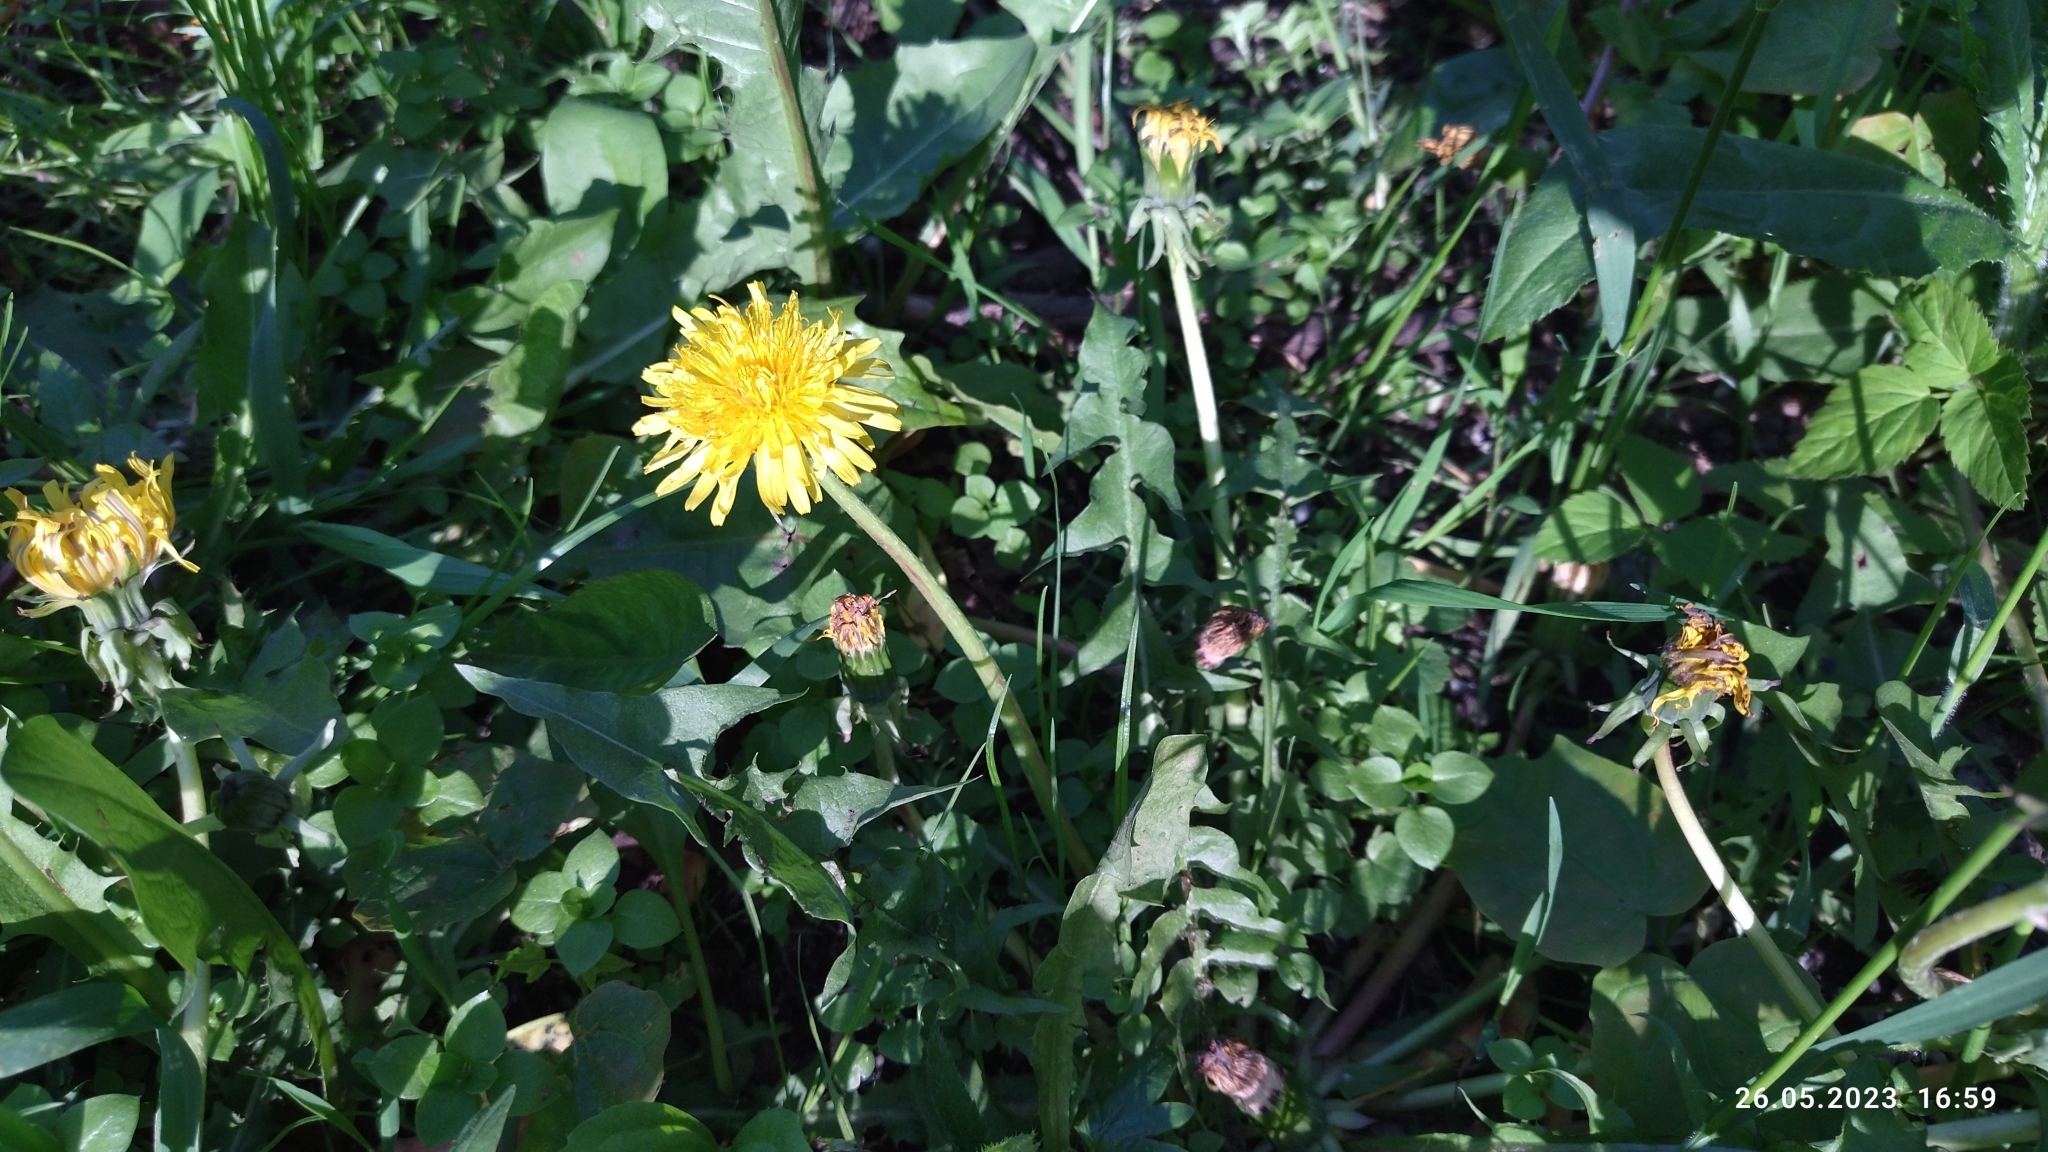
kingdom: Plantae
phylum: Tracheophyta
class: Magnoliopsida
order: Asterales
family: Asteraceae
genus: Taraxacum
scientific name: Taraxacum officinale
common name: Common dandelion
